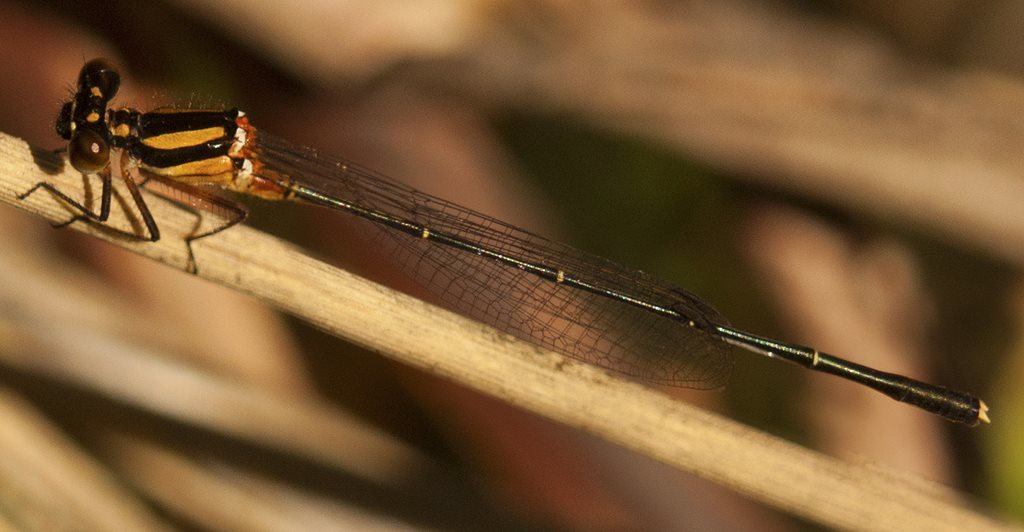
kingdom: Animalia
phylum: Arthropoda
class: Insecta
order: Odonata
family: Platycnemididae
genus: Nososticta
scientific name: Nososticta solida
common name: Orange threadtail
